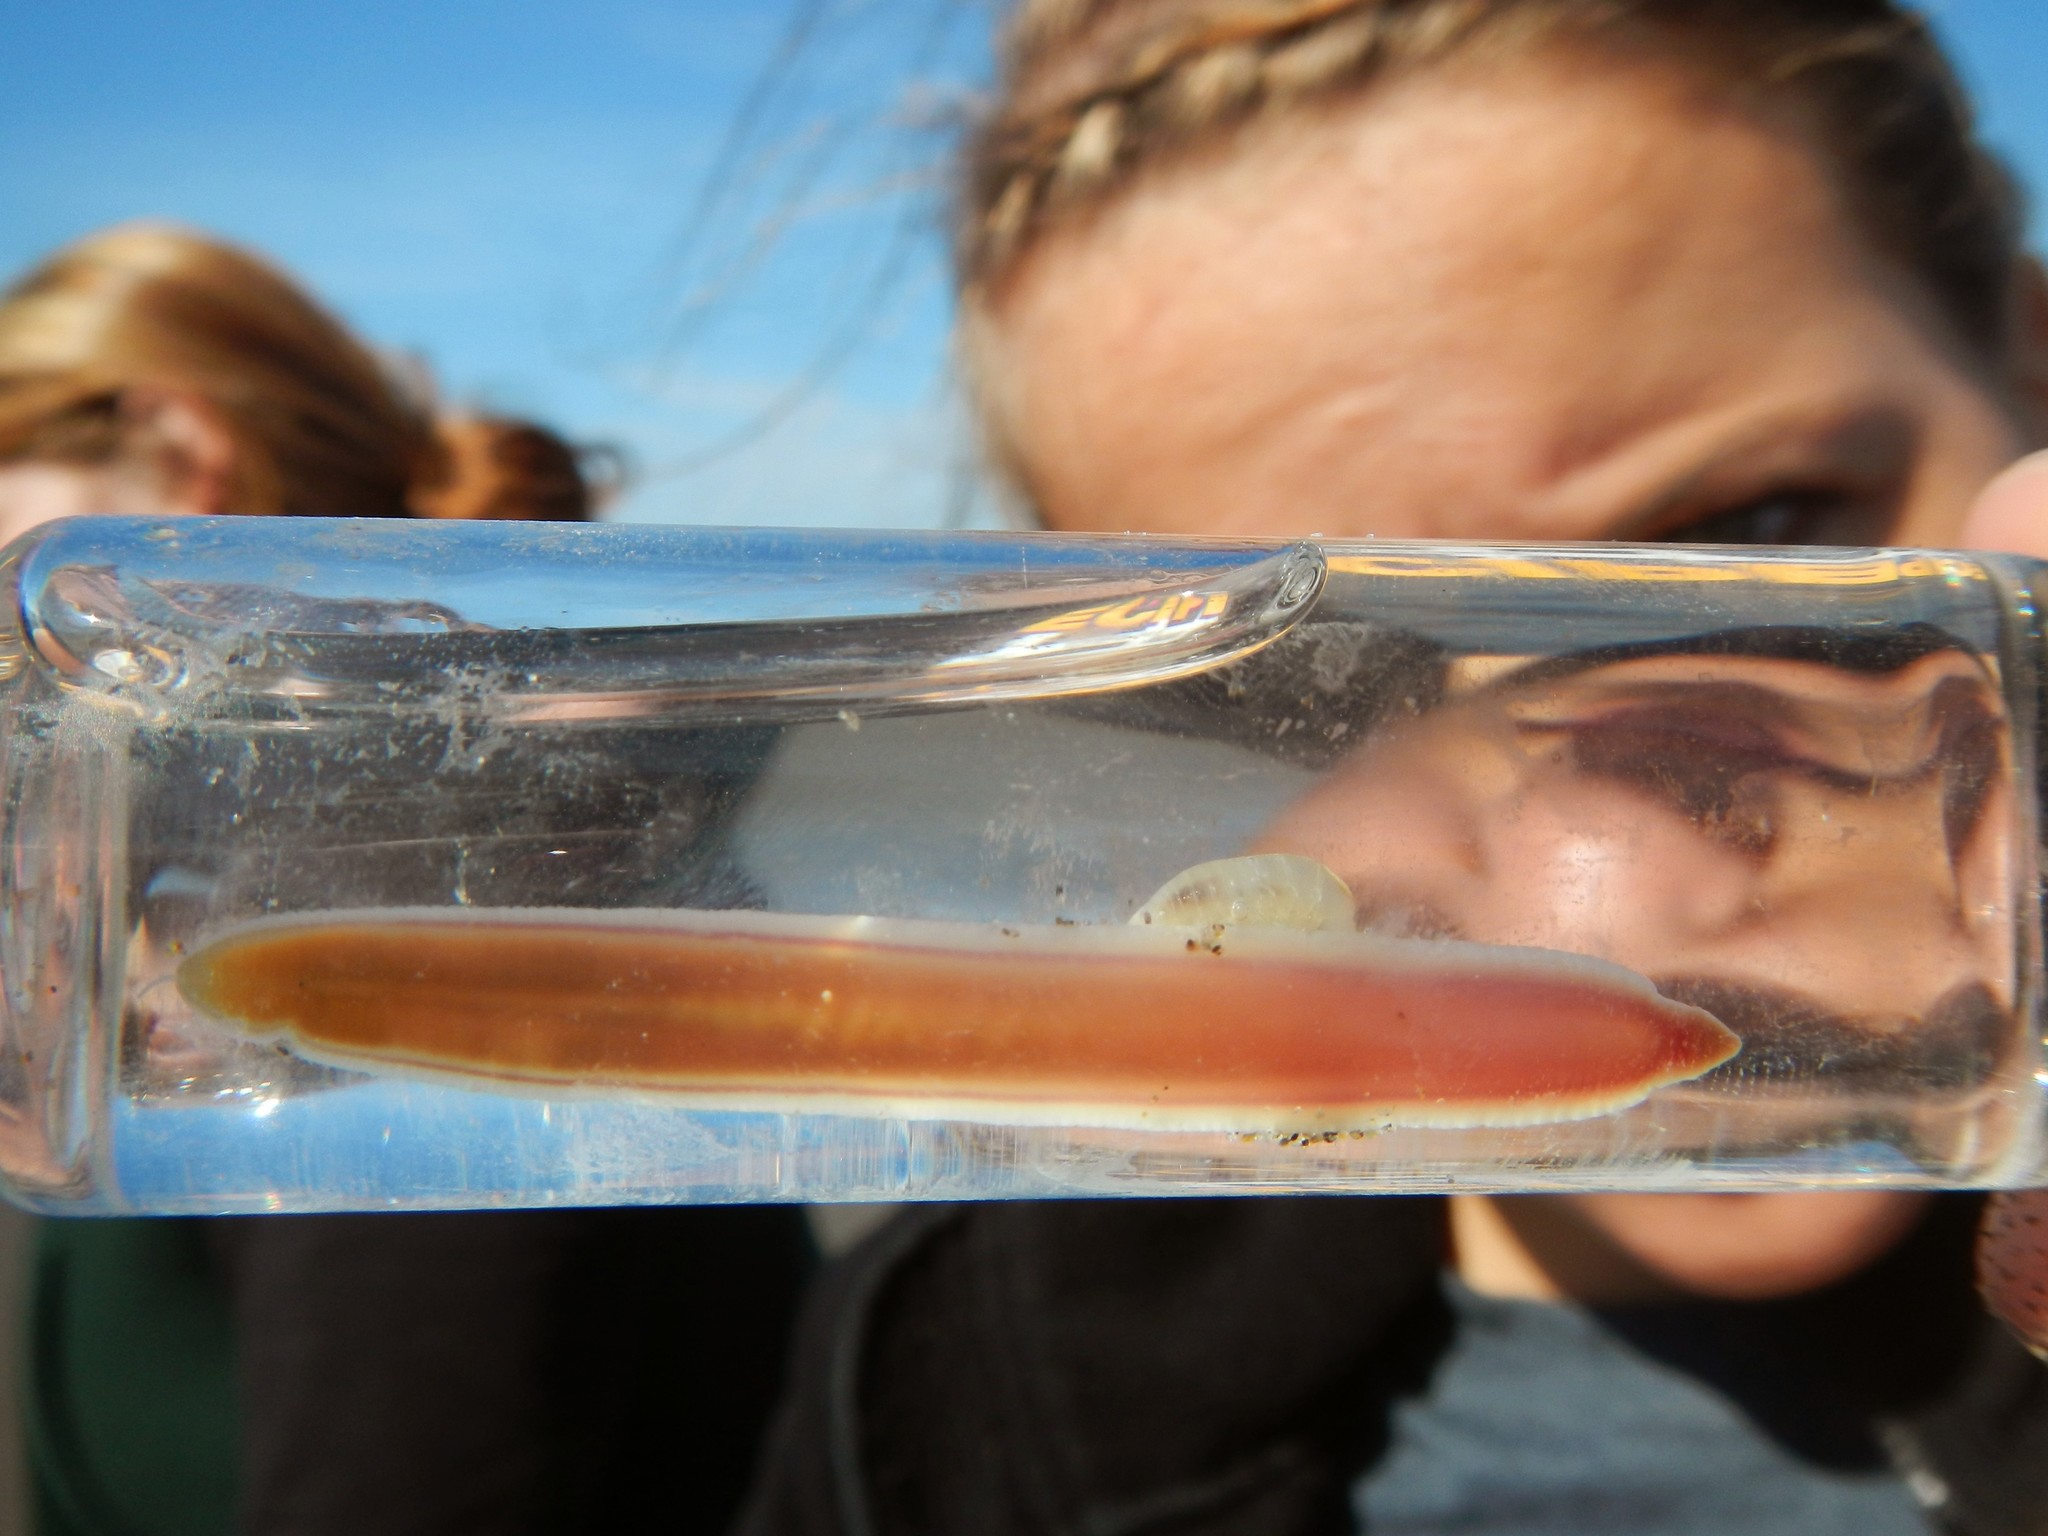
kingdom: Animalia
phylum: Nemertea
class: Pilidiophora
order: Heteronemertea
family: Lineidae
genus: Cerebratulus
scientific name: Cerebratulus californiensis
